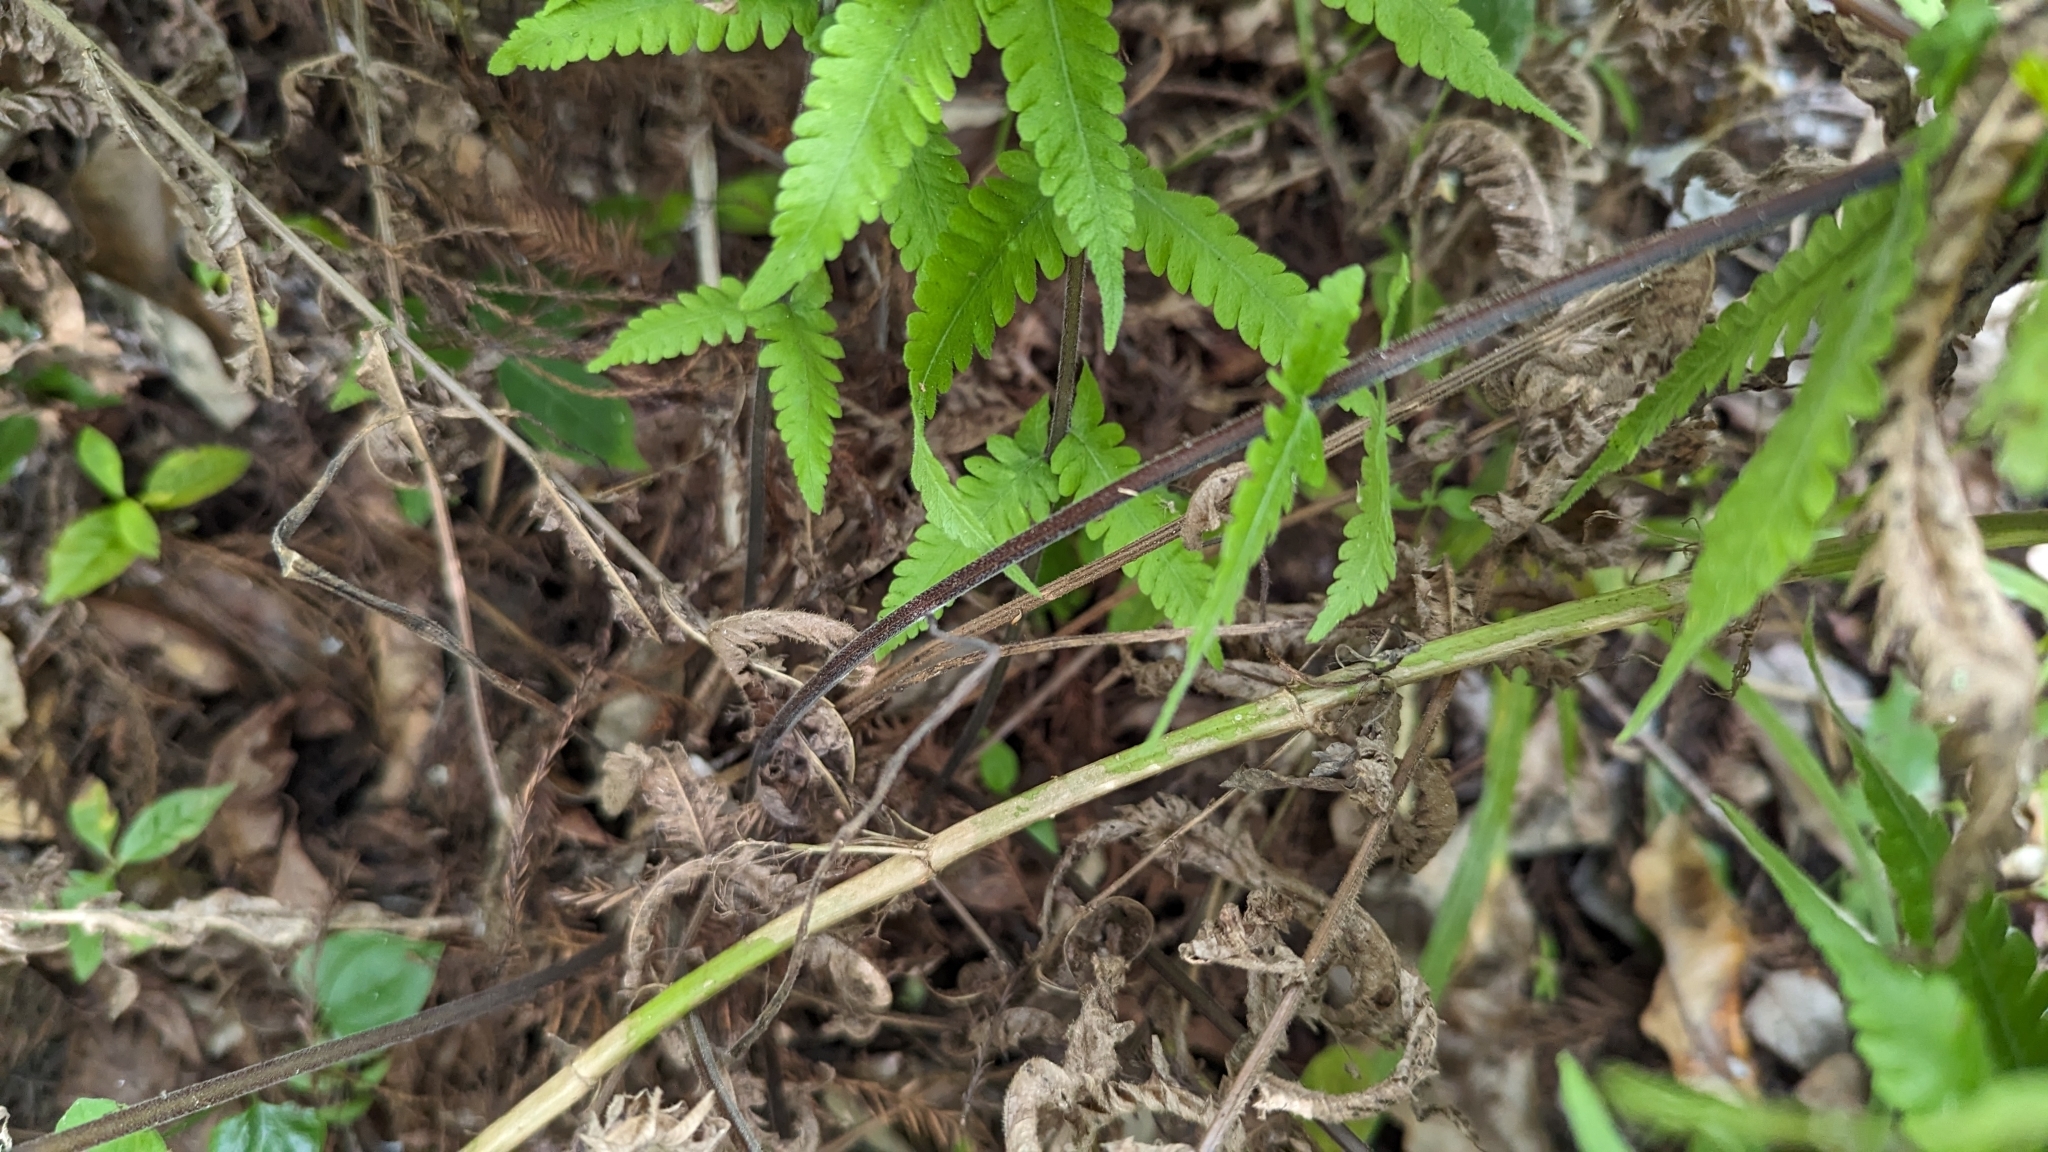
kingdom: Plantae
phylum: Tracheophyta
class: Polypodiopsida
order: Polypodiales
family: Thelypteridaceae
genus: Christella
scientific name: Christella dentata
